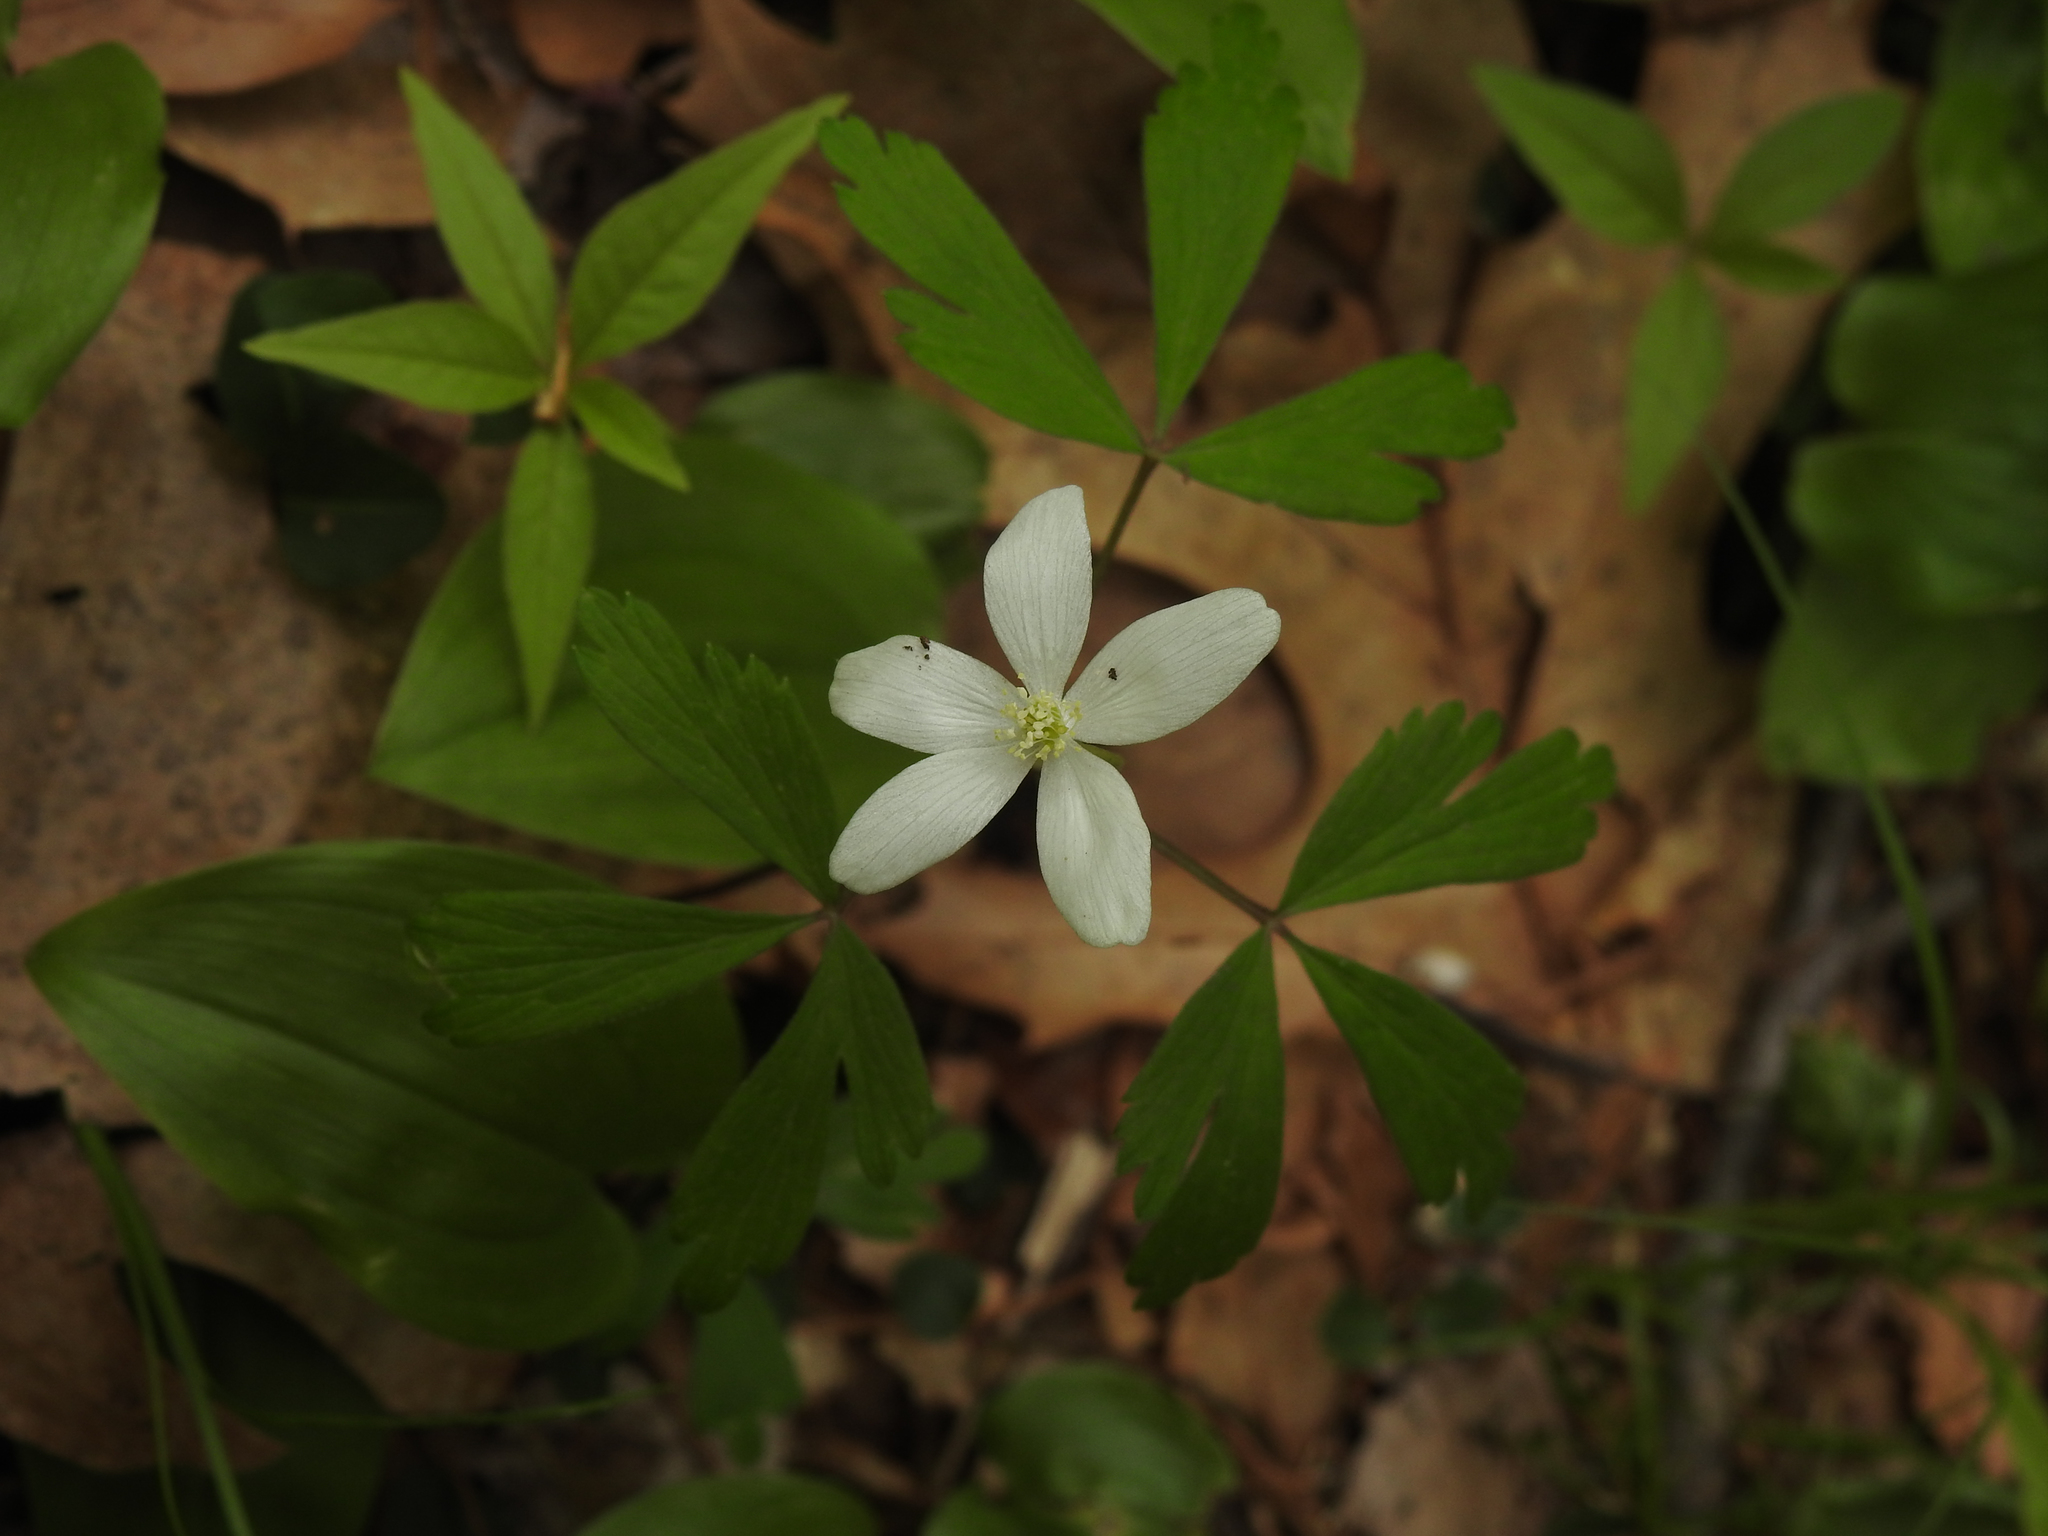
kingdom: Plantae
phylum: Tracheophyta
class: Magnoliopsida
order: Ranunculales
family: Ranunculaceae
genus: Anemone
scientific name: Anemone quinquefolia
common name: Wood anemone
